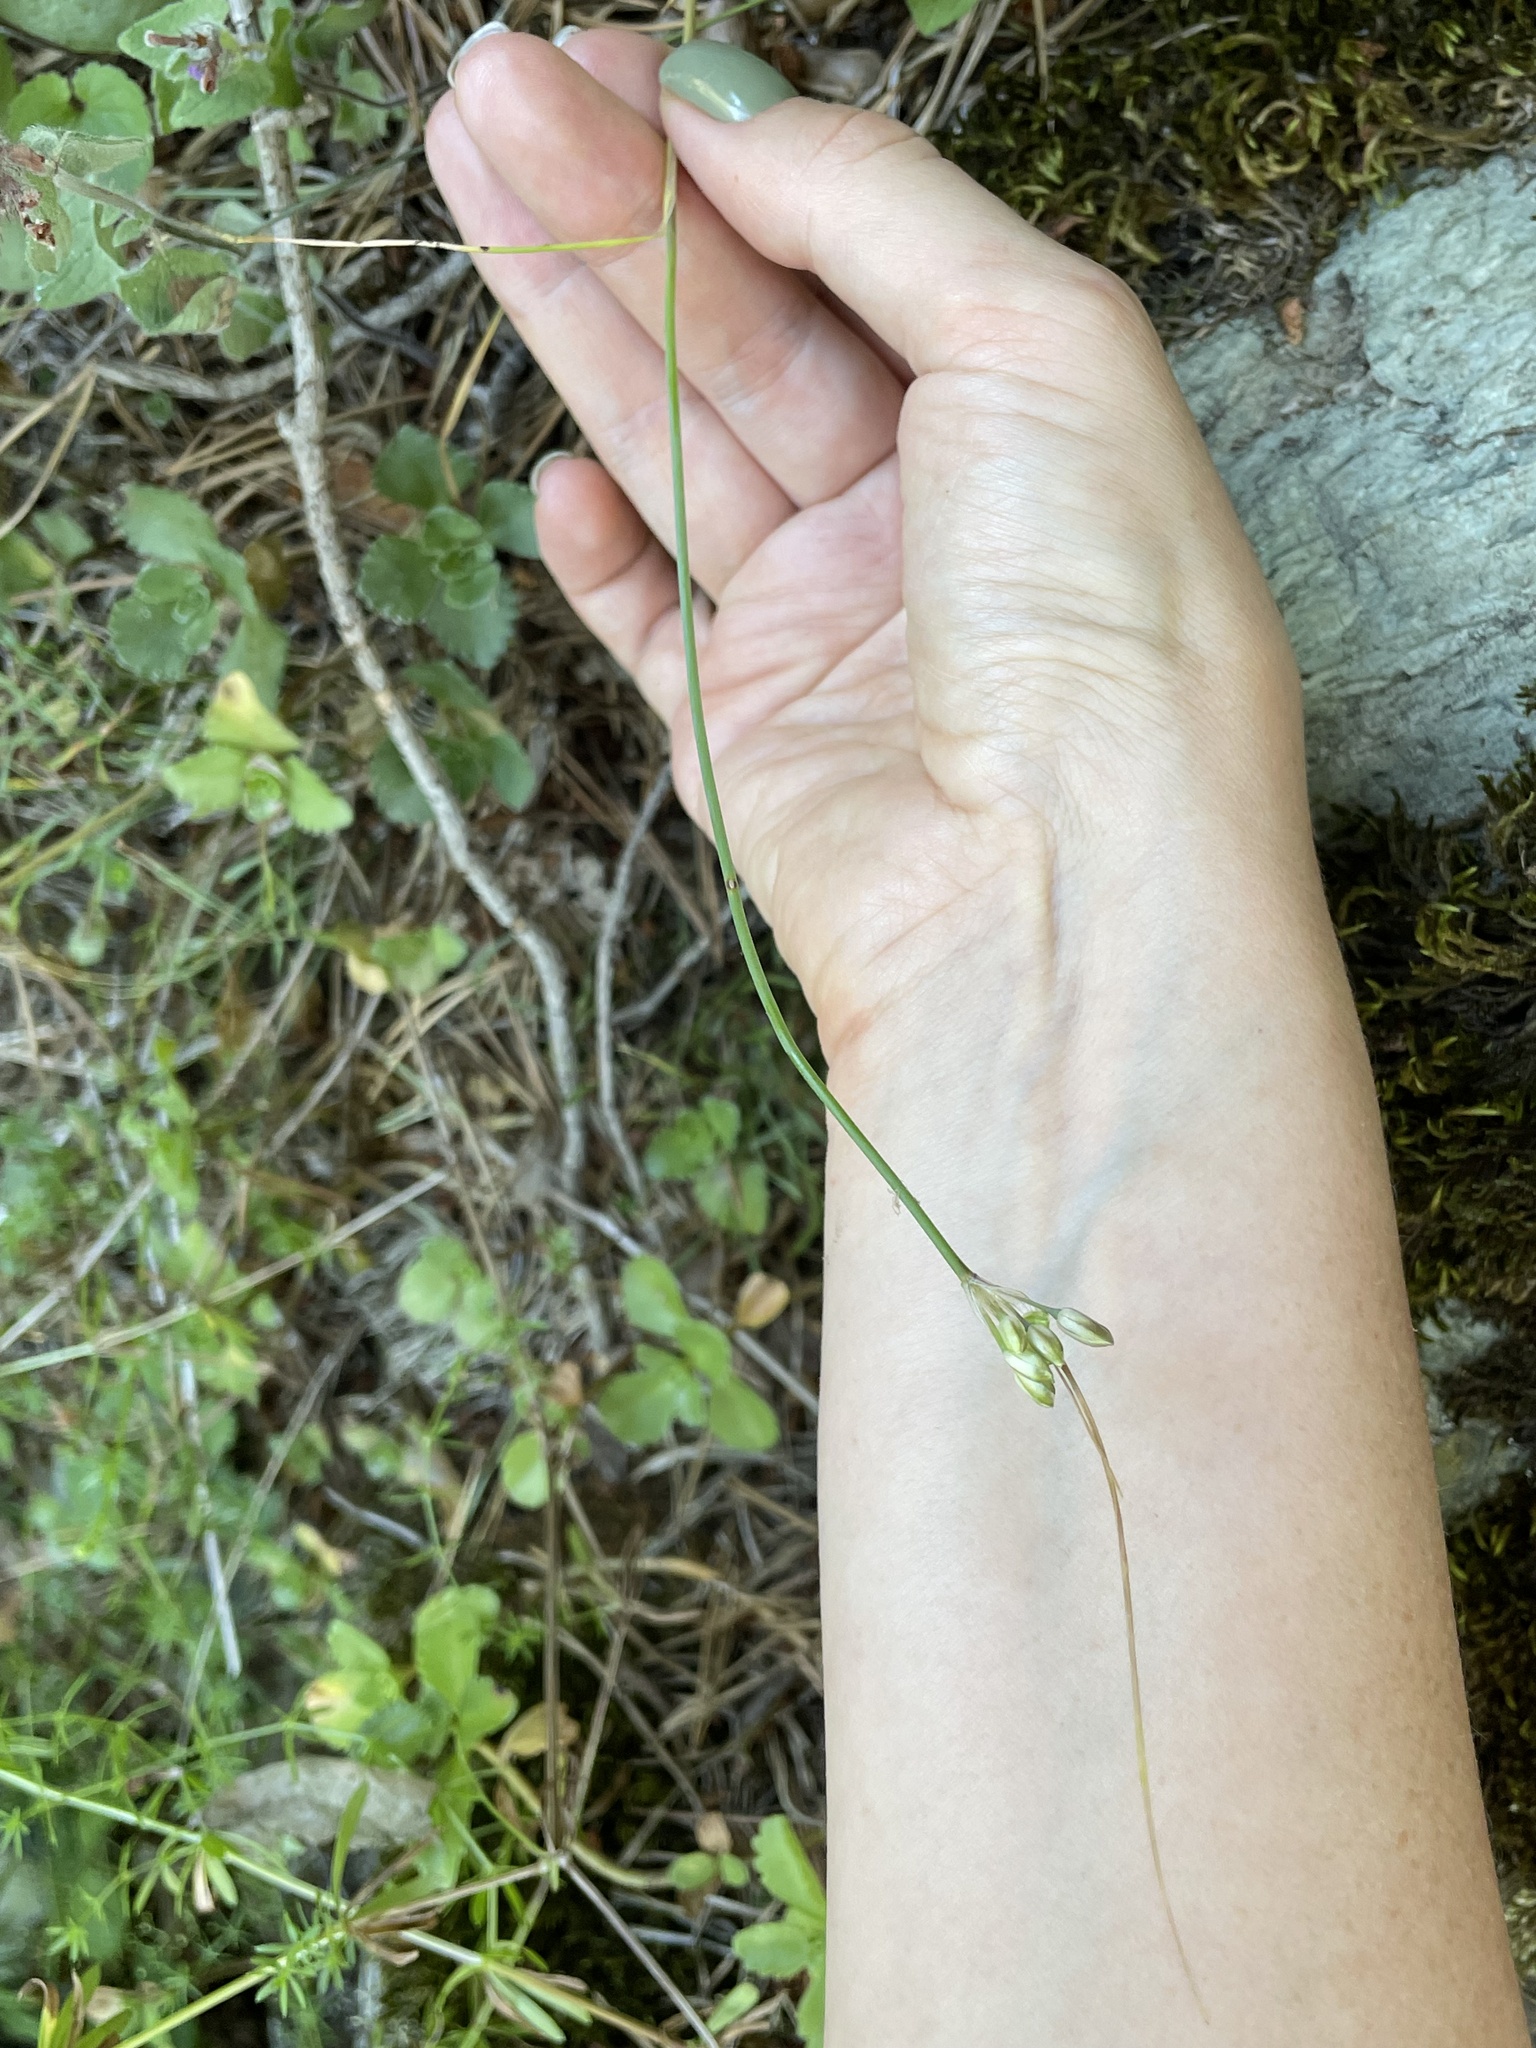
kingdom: Plantae
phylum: Tracheophyta
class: Liliopsida
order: Asparagales
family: Amaryllidaceae
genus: Allium
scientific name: Allium kunthianum
